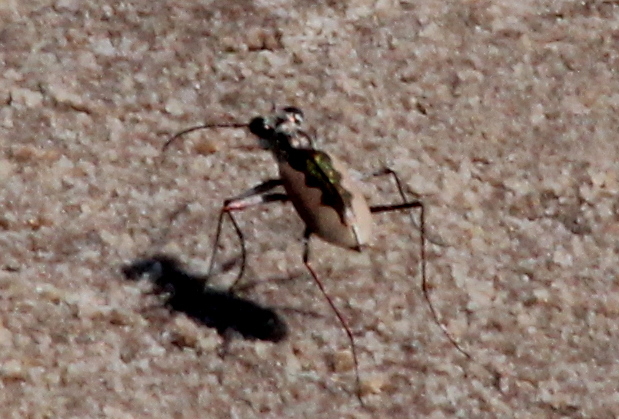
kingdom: Animalia
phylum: Arthropoda
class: Insecta
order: Coleoptera
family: Carabidae
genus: Eunota
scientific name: Eunota togata
